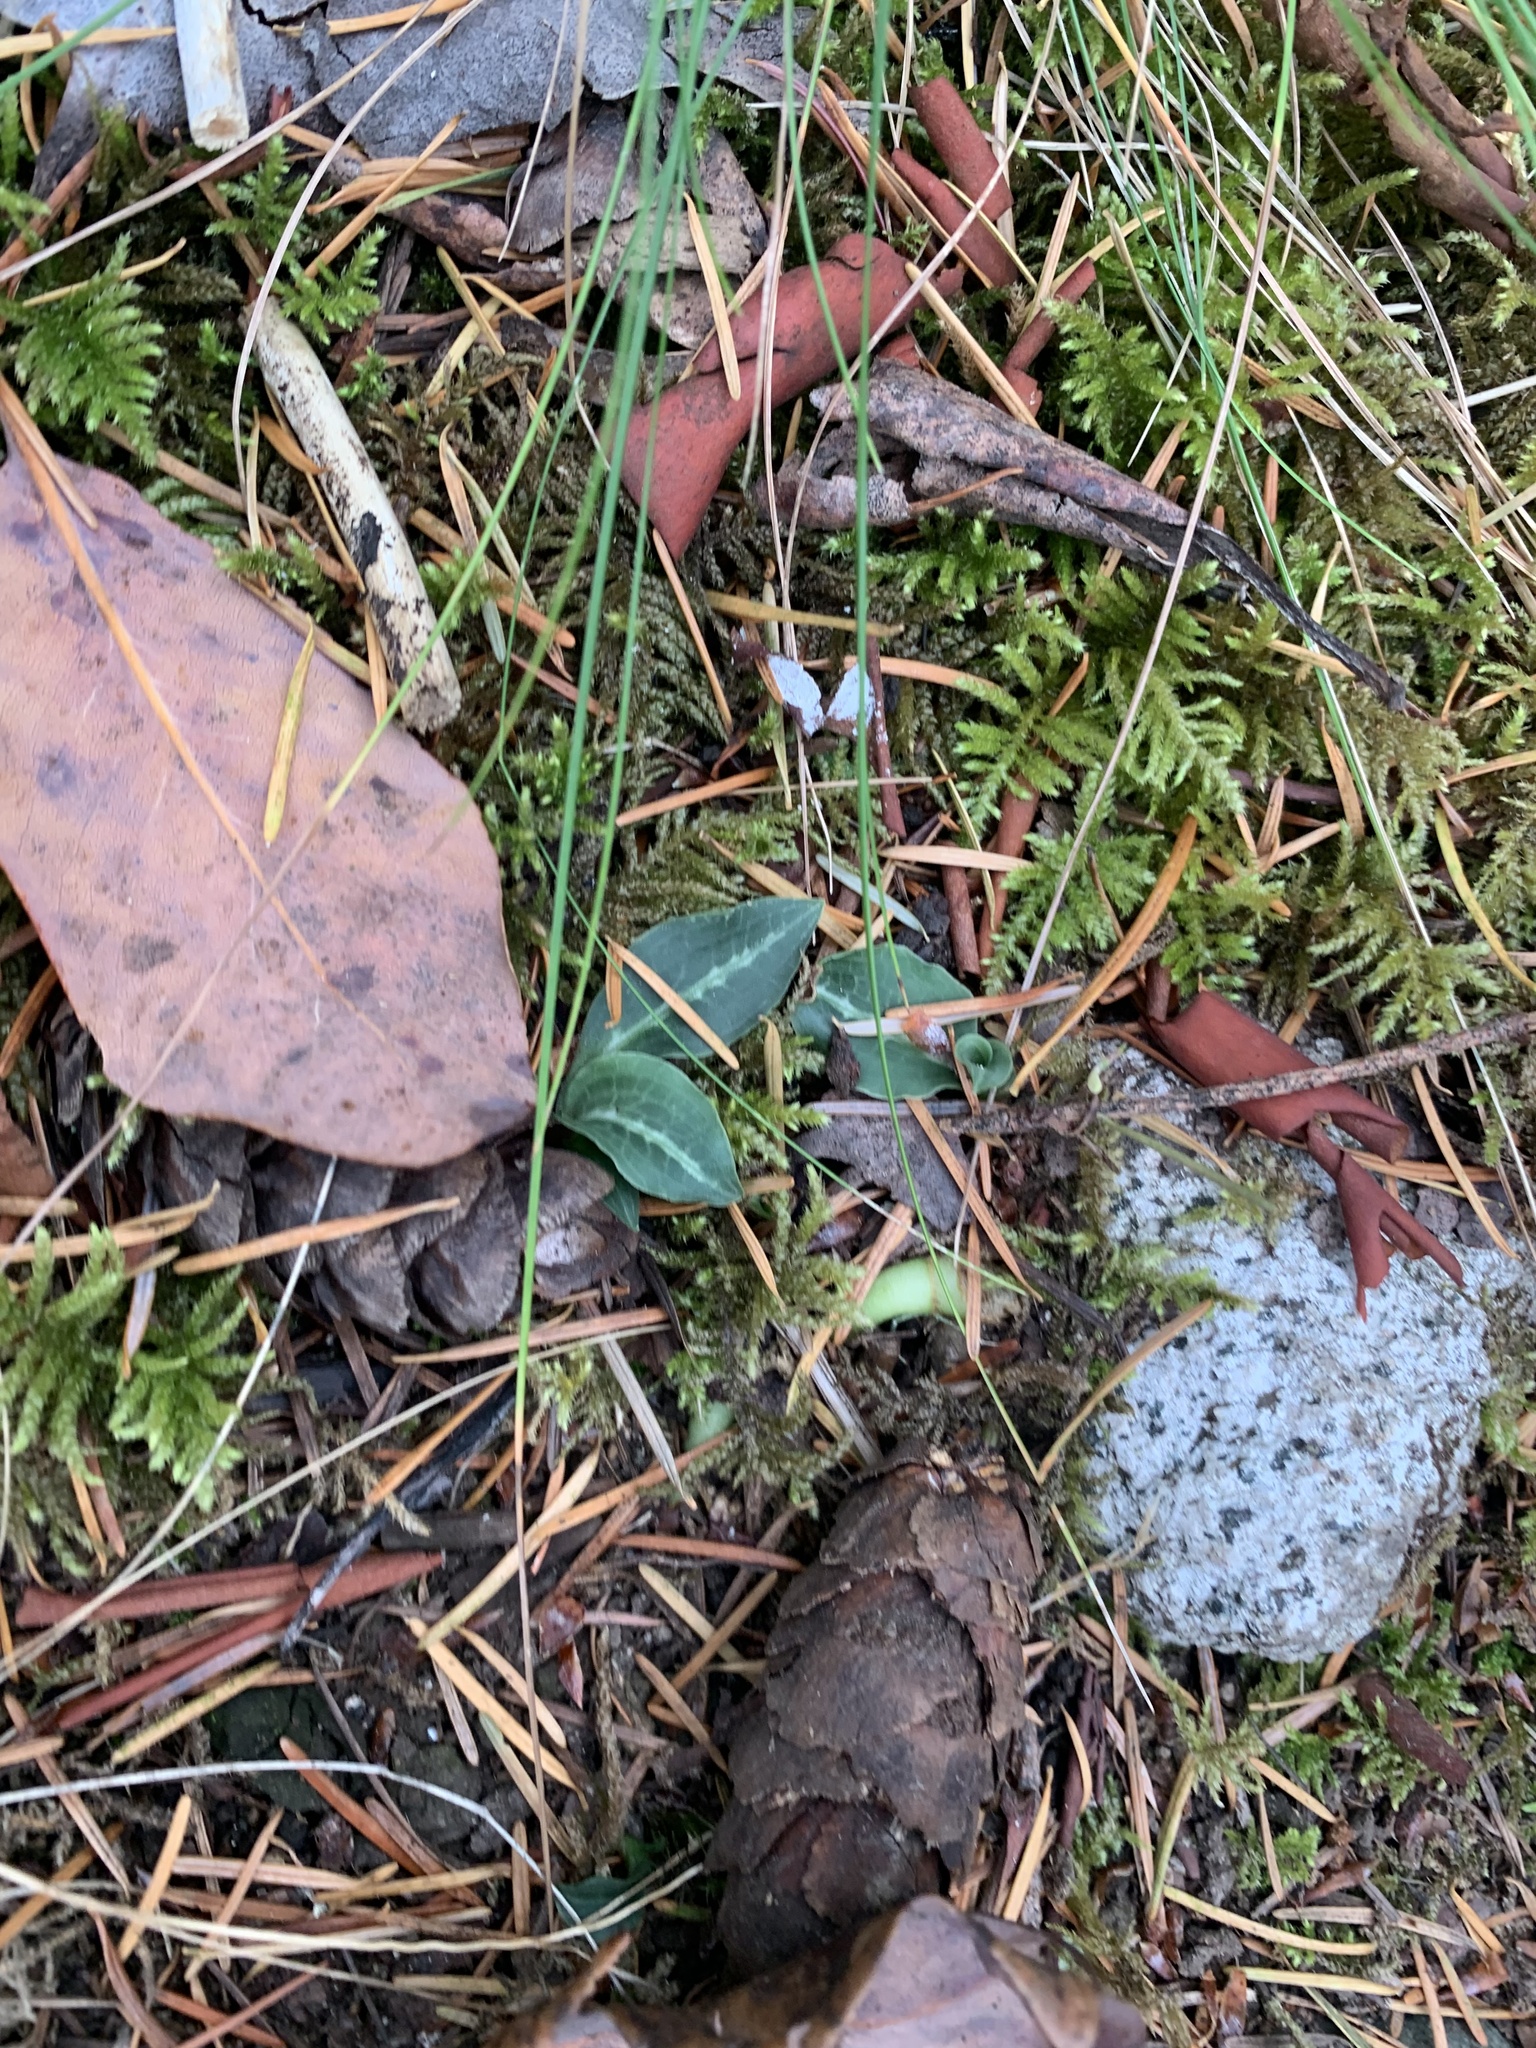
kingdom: Plantae
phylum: Tracheophyta
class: Liliopsida
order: Asparagales
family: Orchidaceae
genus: Goodyera
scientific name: Goodyera oblongifolia
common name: Giant rattlesnake-plantain
